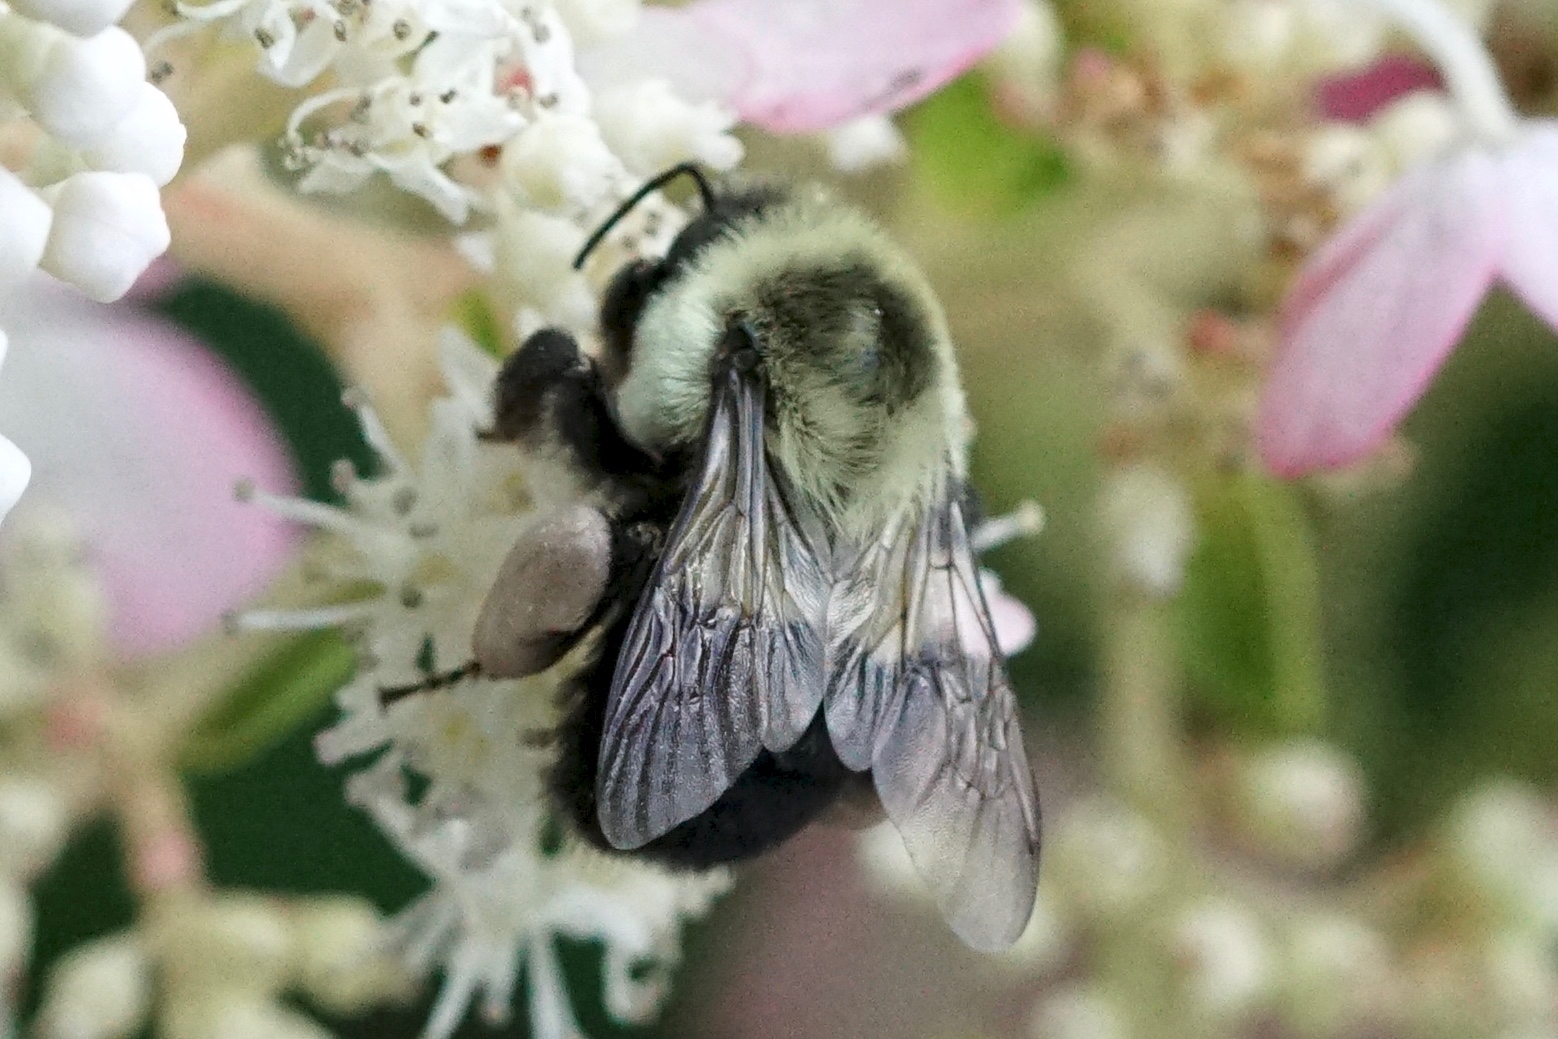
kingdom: Animalia
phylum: Arthropoda
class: Insecta
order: Hymenoptera
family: Apidae
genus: Bombus
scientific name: Bombus impatiens
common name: Common eastern bumble bee
